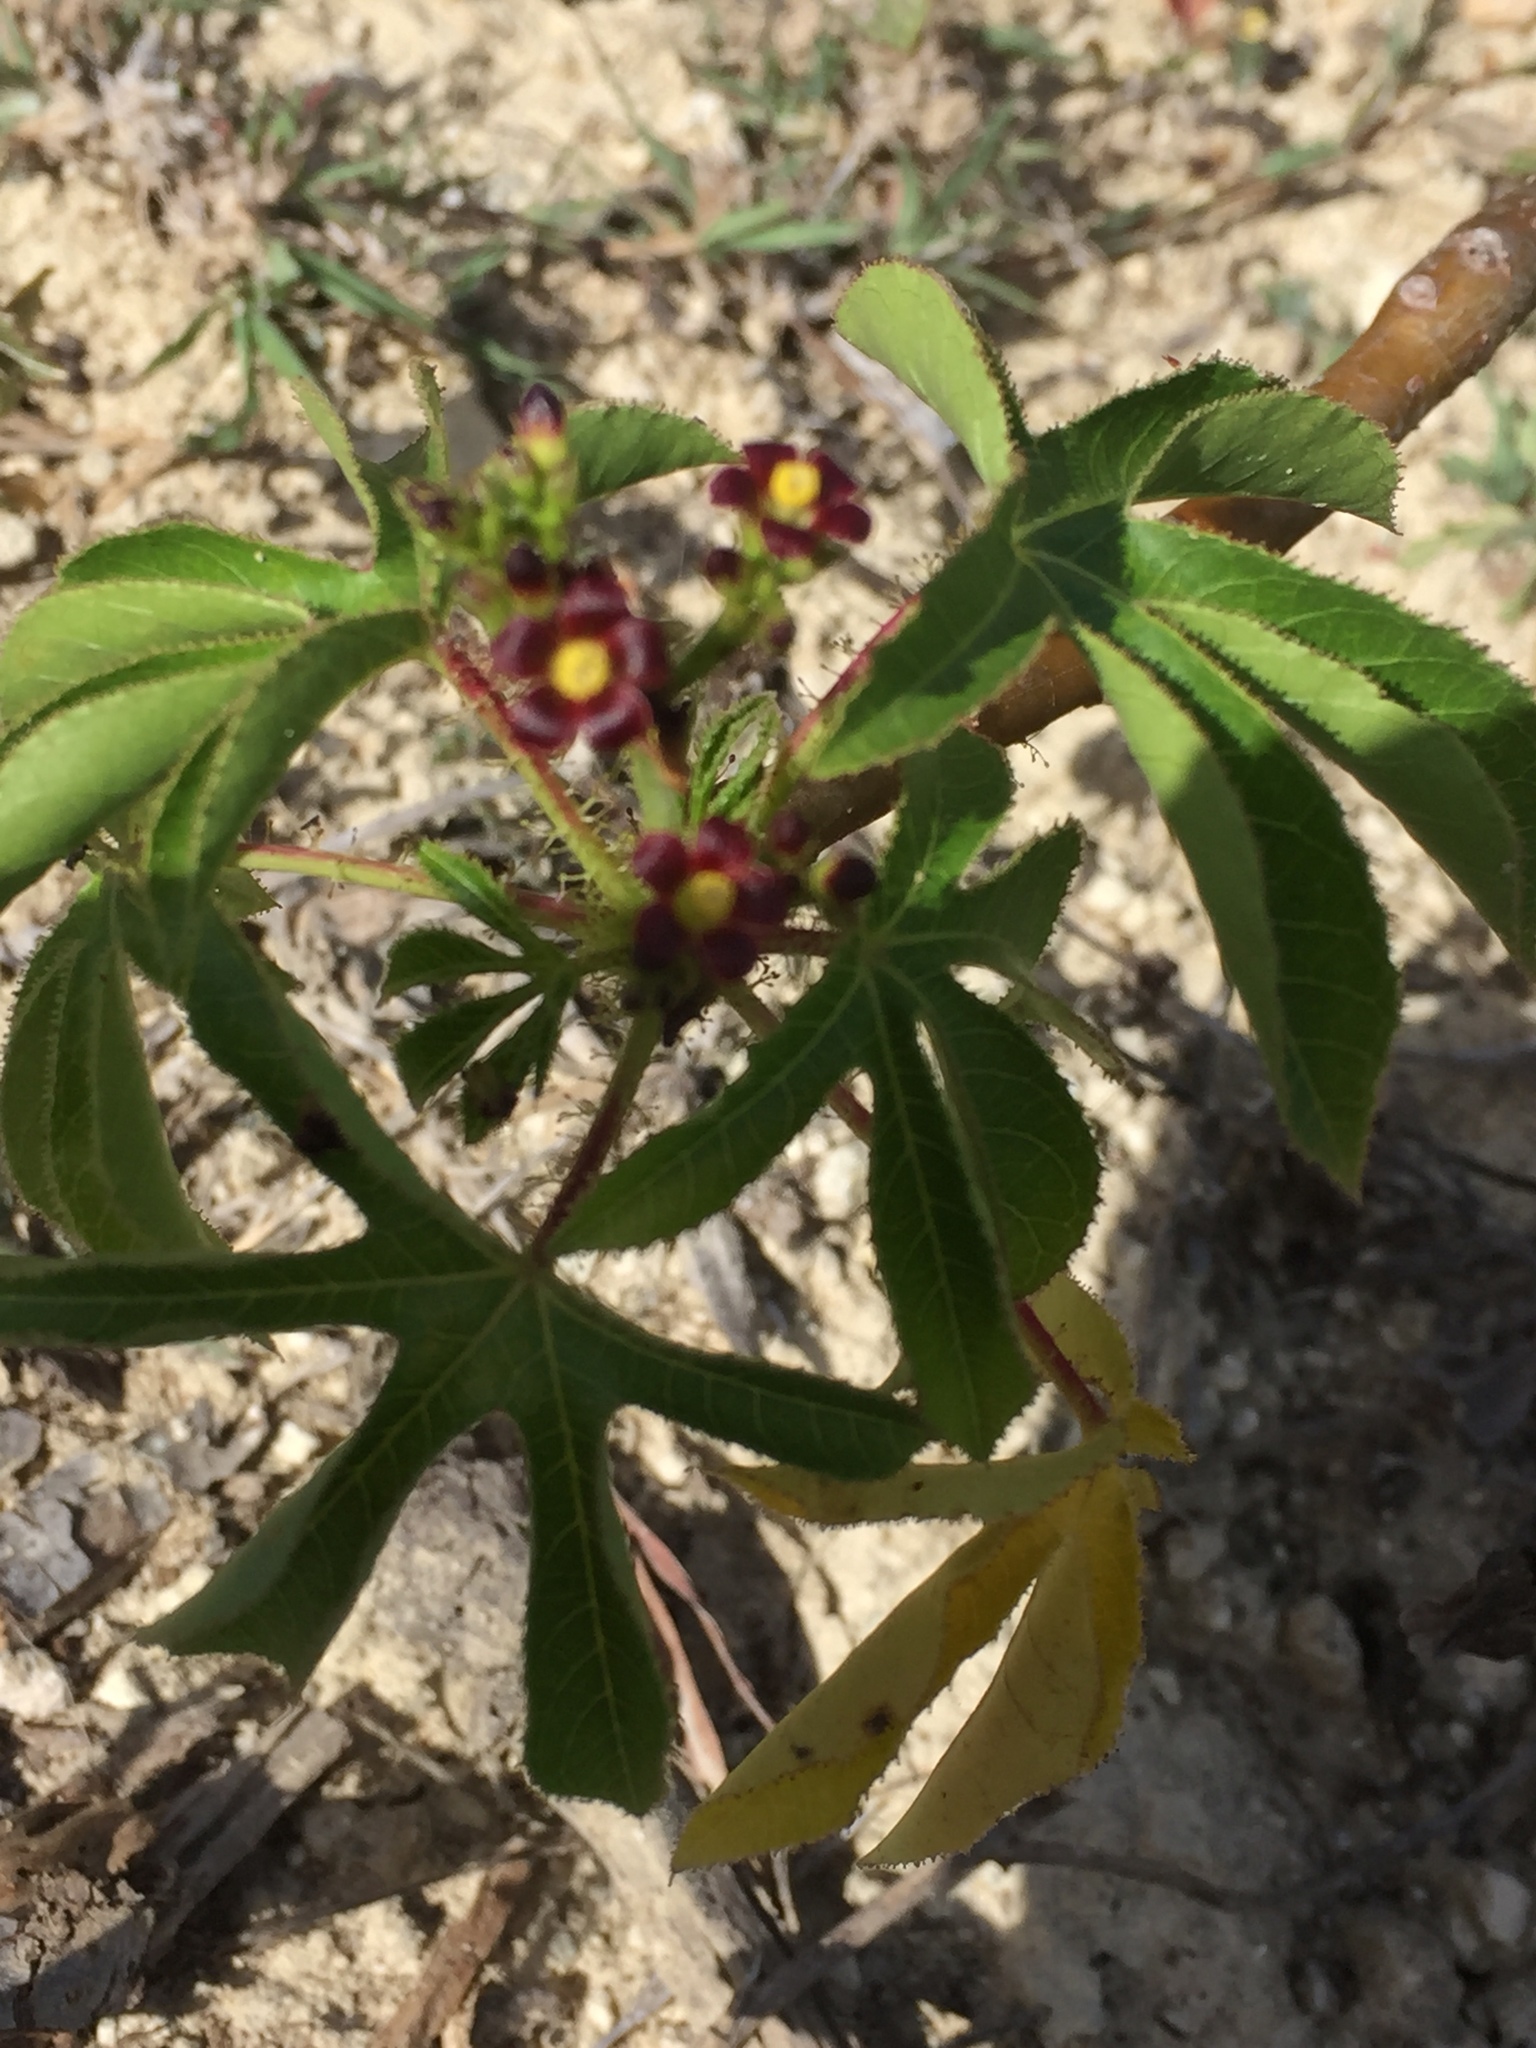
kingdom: Plantae
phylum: Tracheophyta
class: Magnoliopsida
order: Malpighiales
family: Euphorbiaceae
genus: Jatropha
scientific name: Jatropha gossypiifolia
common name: Bellyache bush
